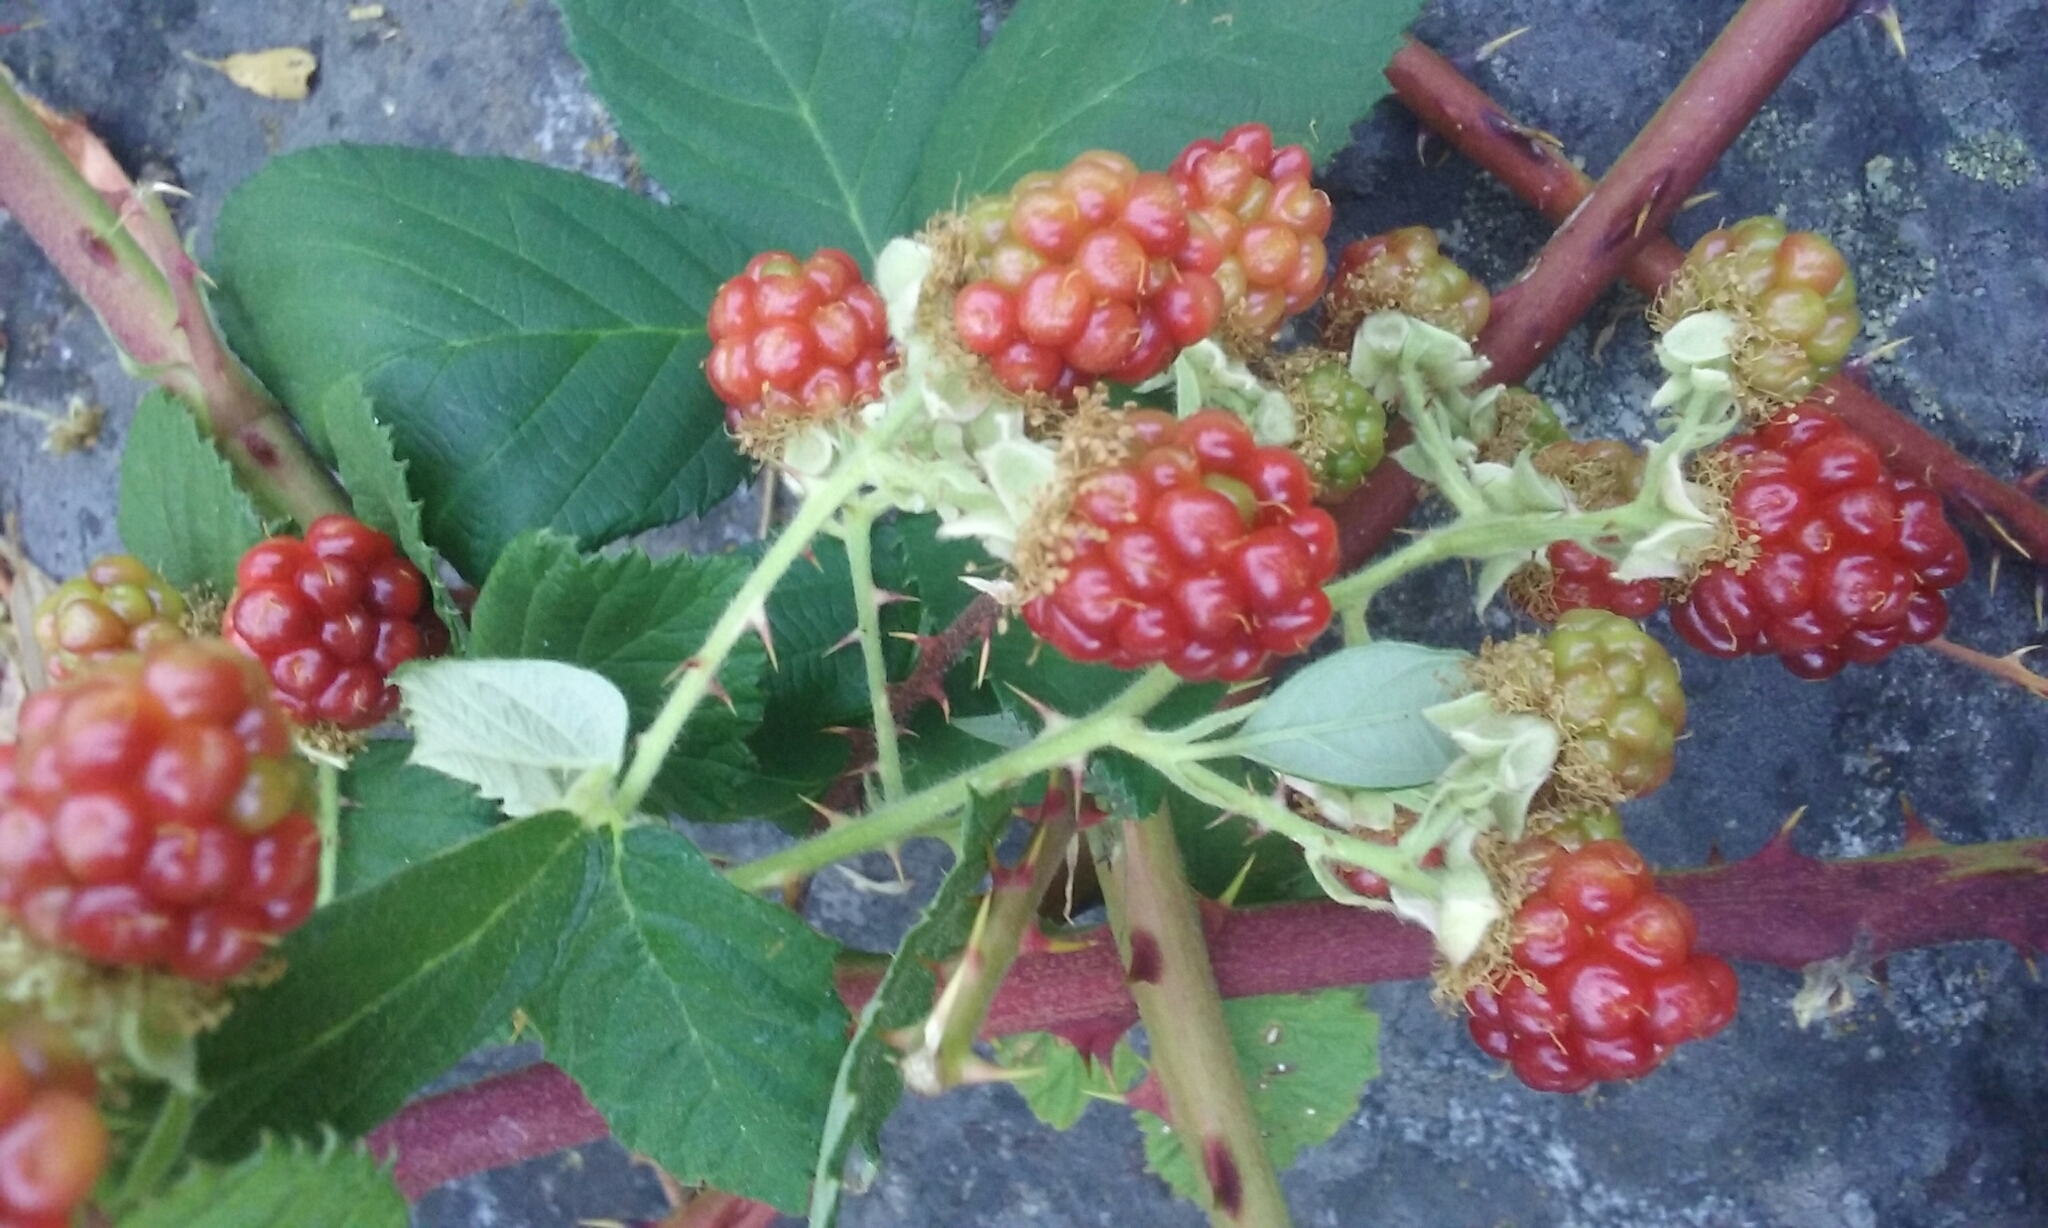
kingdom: Plantae
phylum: Tracheophyta
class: Magnoliopsida
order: Rosales
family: Rosaceae
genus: Rubus
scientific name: Rubus armeniacus
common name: Himalayan blackberry
